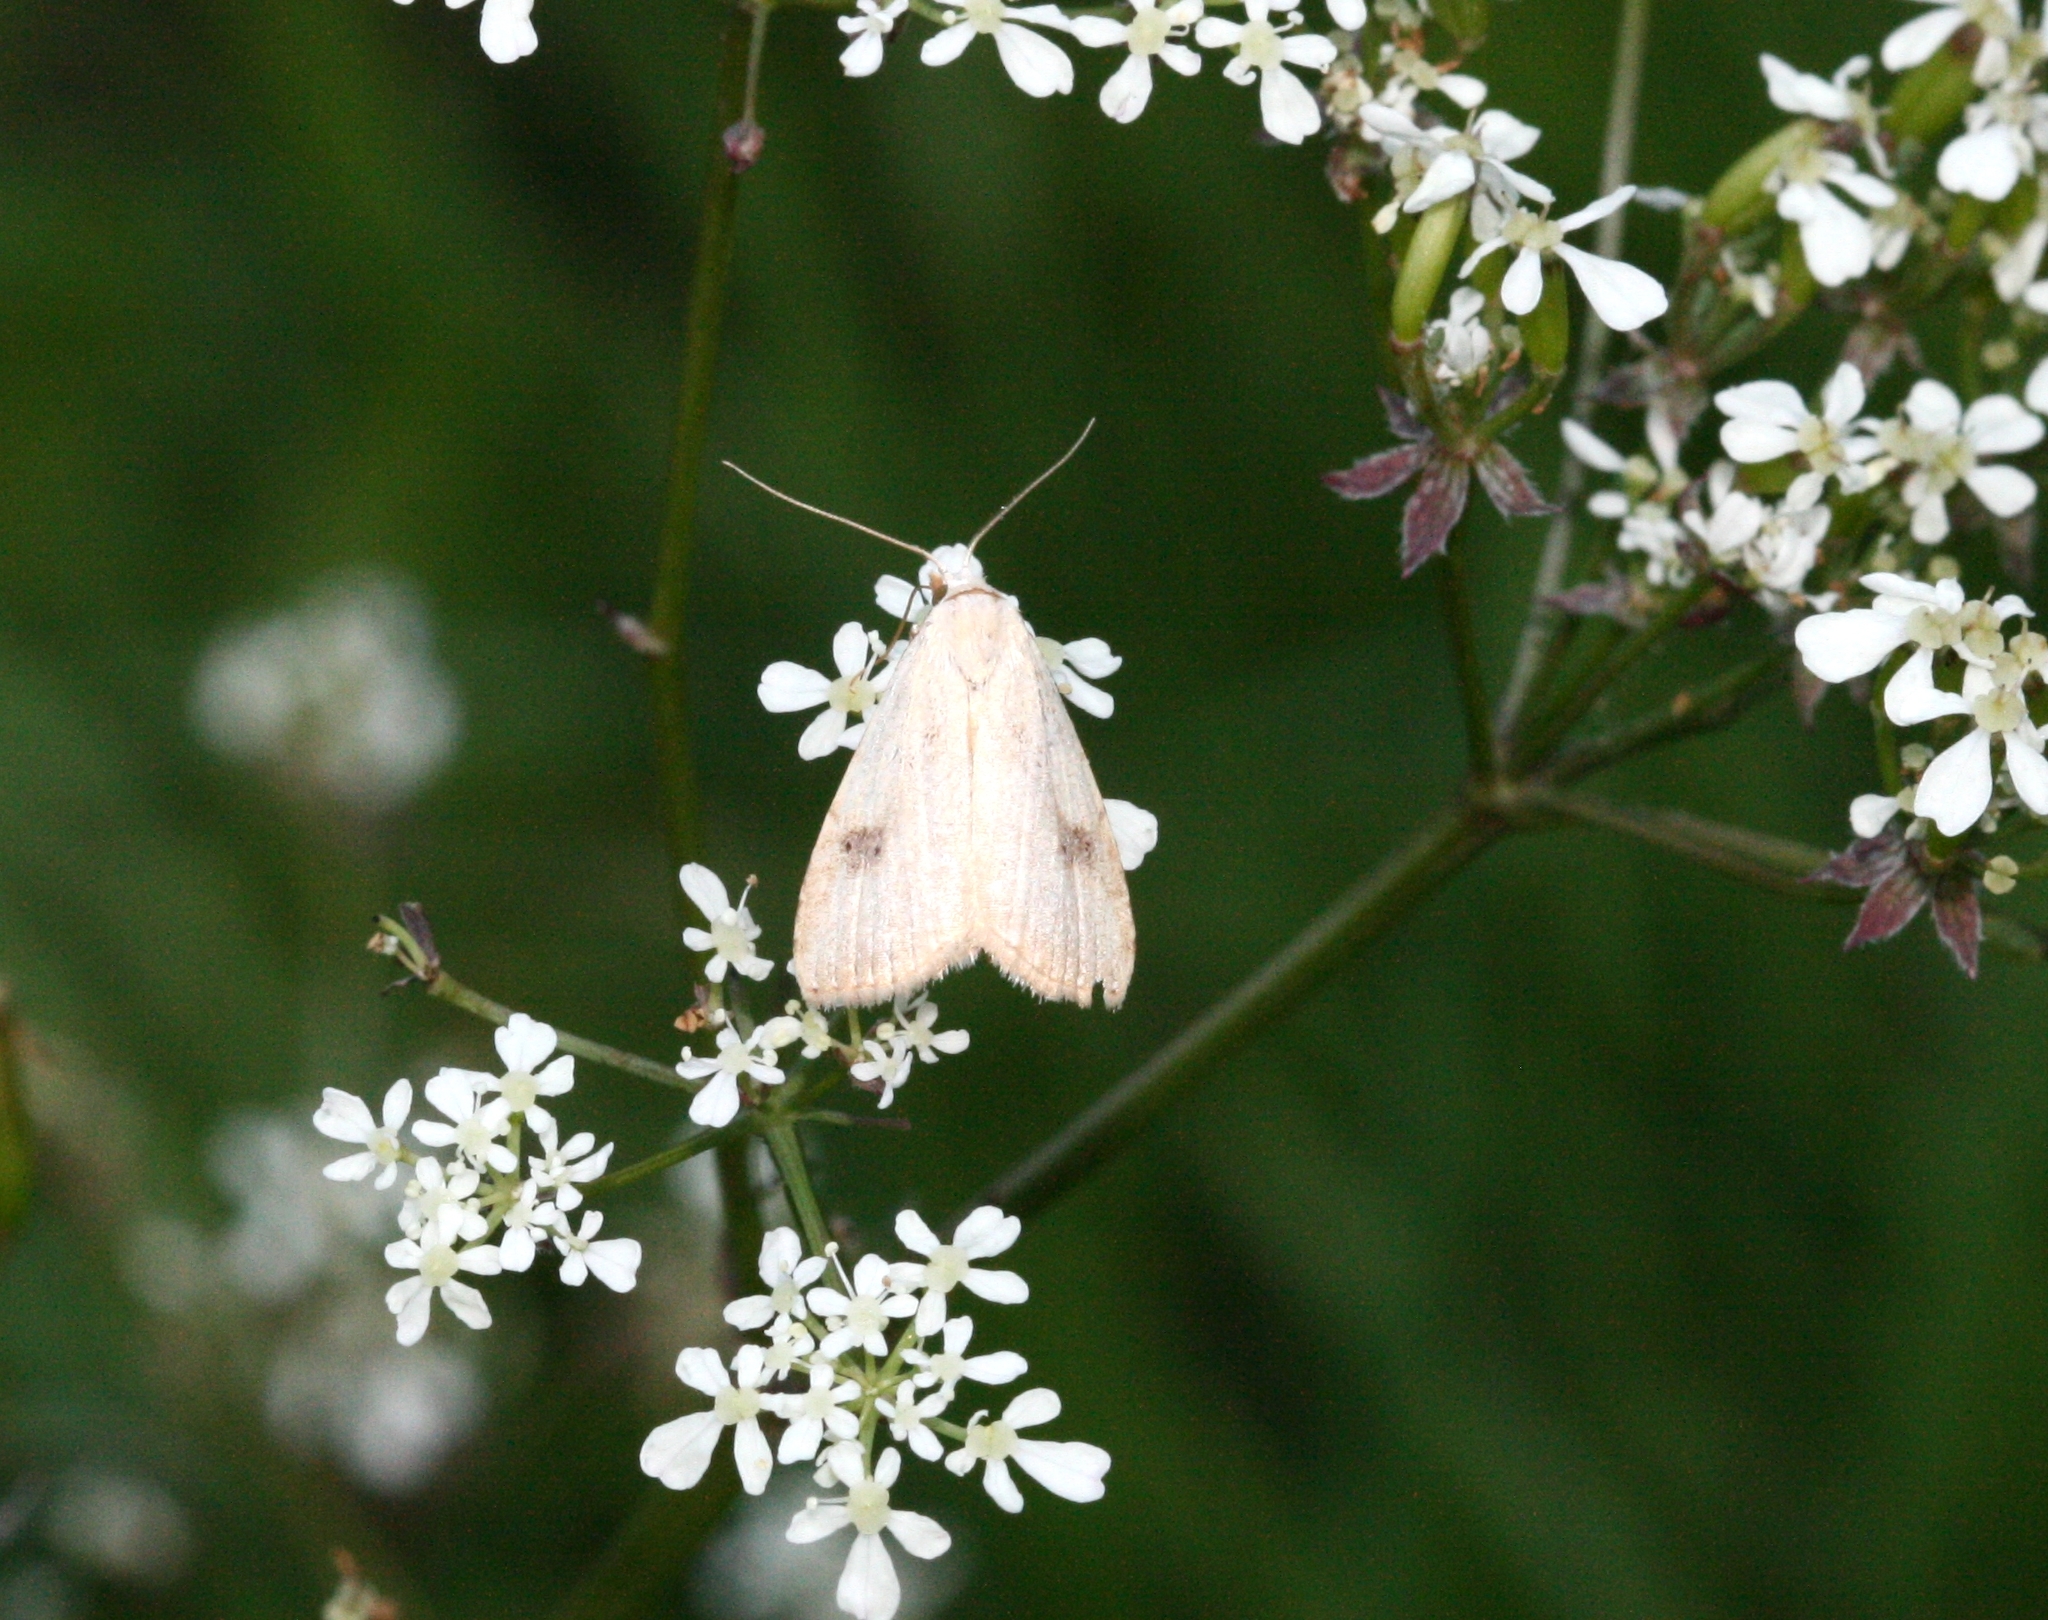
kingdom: Animalia
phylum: Arthropoda
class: Insecta
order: Lepidoptera
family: Erebidae
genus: Rivula
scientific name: Rivula sericealis
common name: Straw dot
